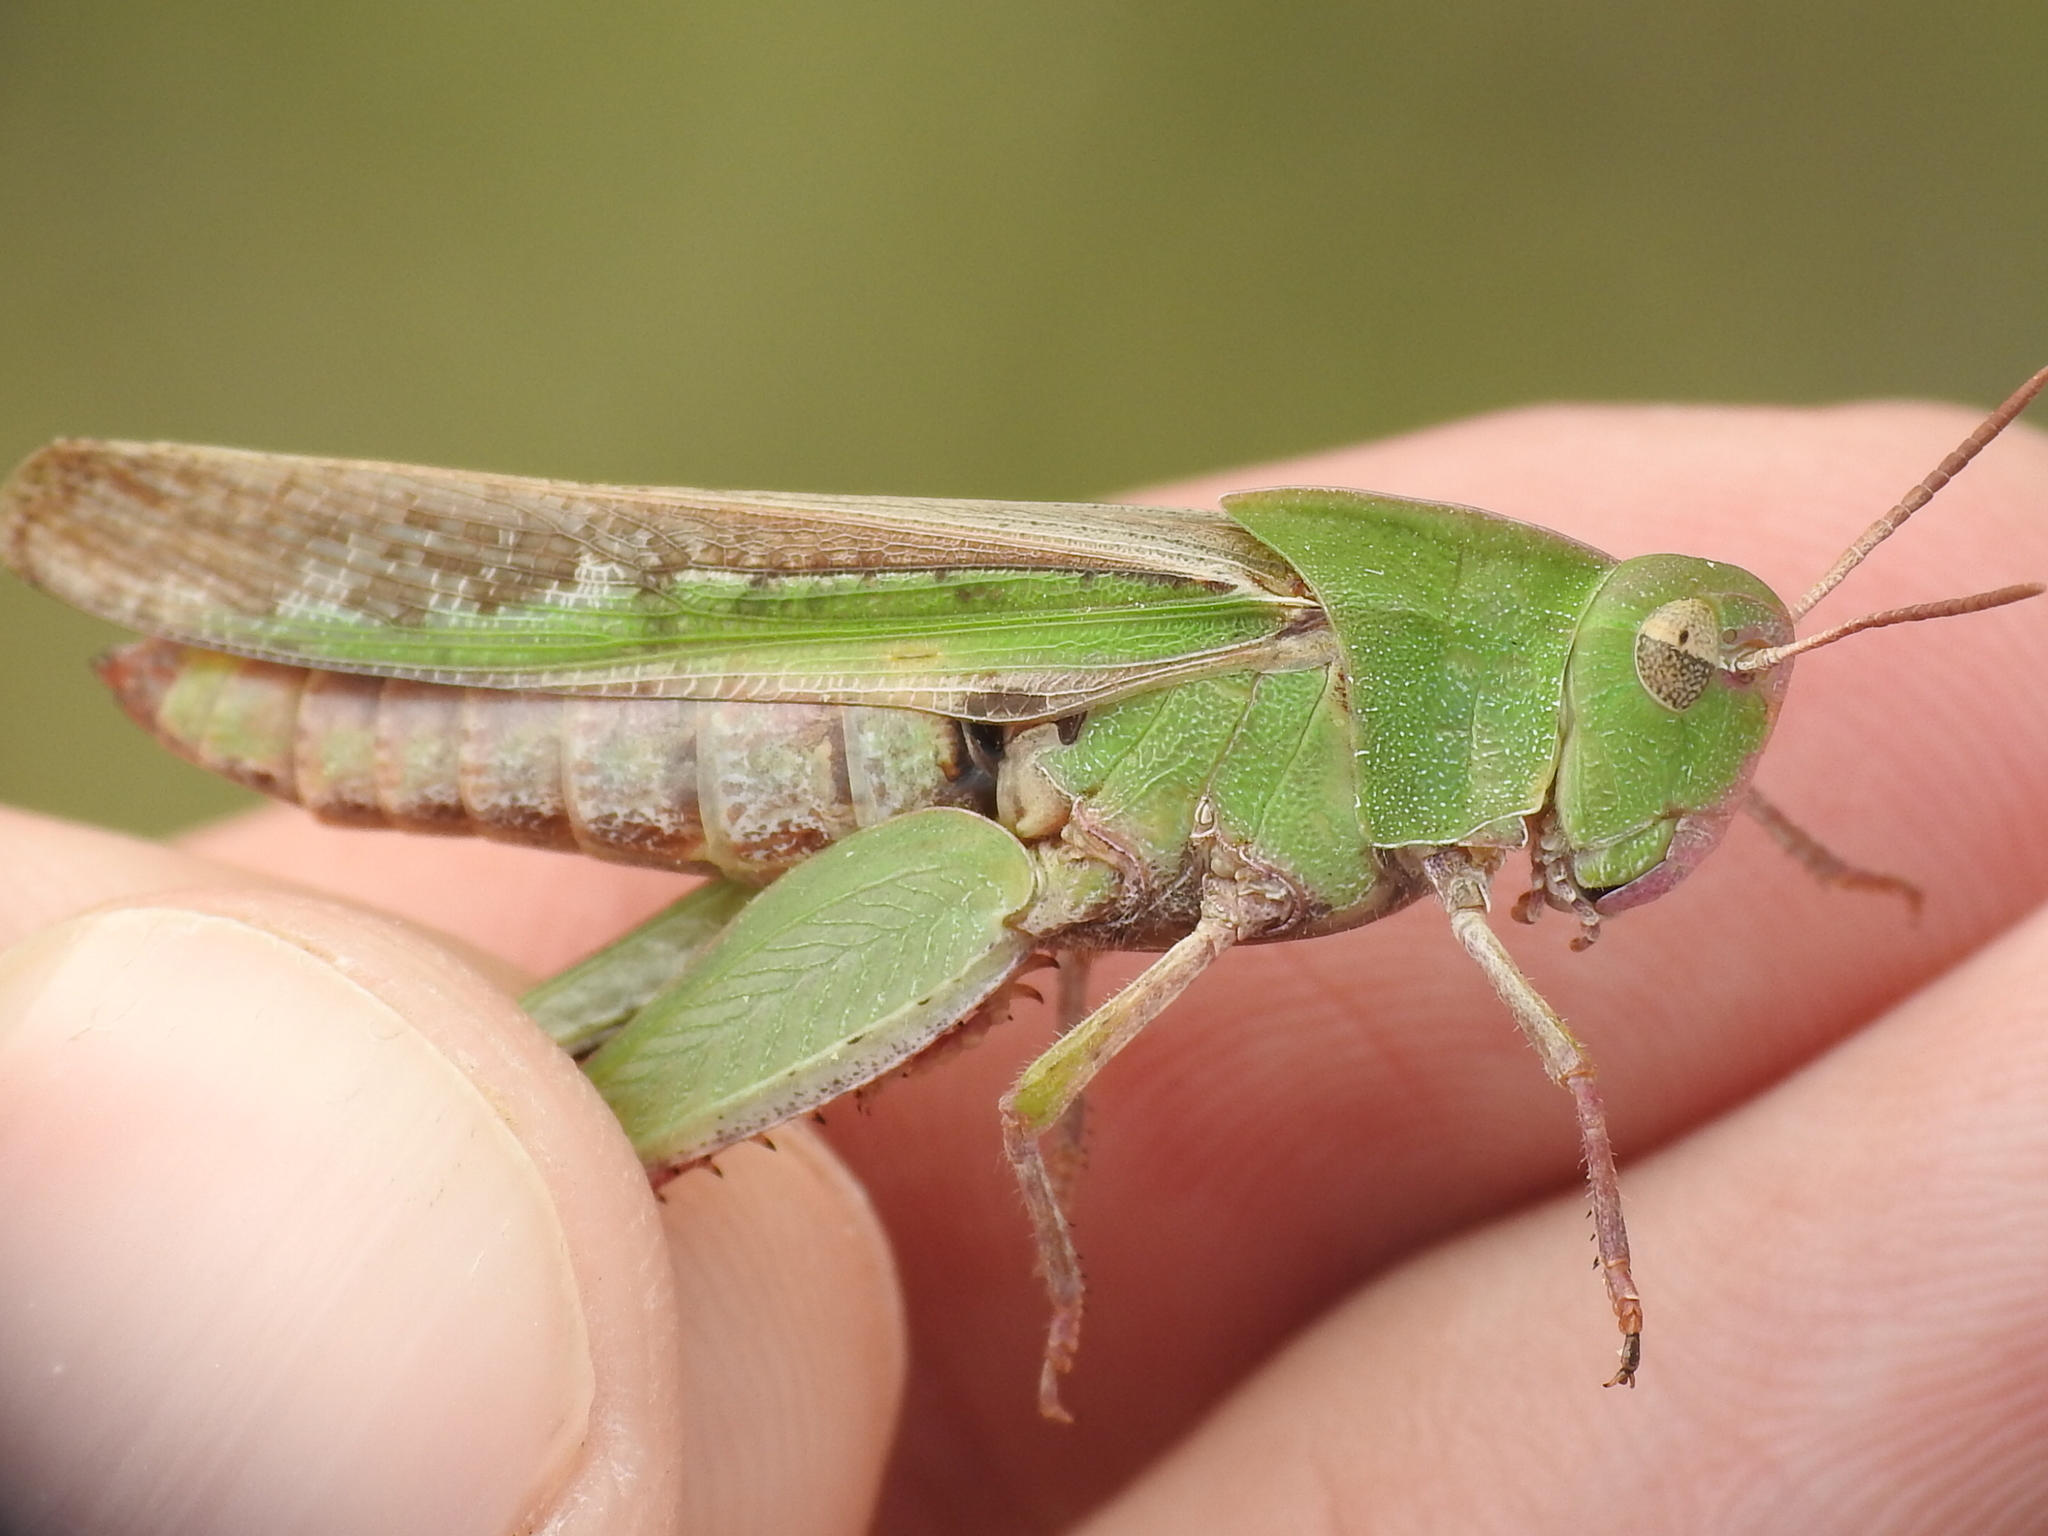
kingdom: Animalia
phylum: Arthropoda
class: Insecta
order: Orthoptera
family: Acrididae
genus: Chortophaga
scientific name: Chortophaga viridifasciata
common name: Green-striped grasshopper
